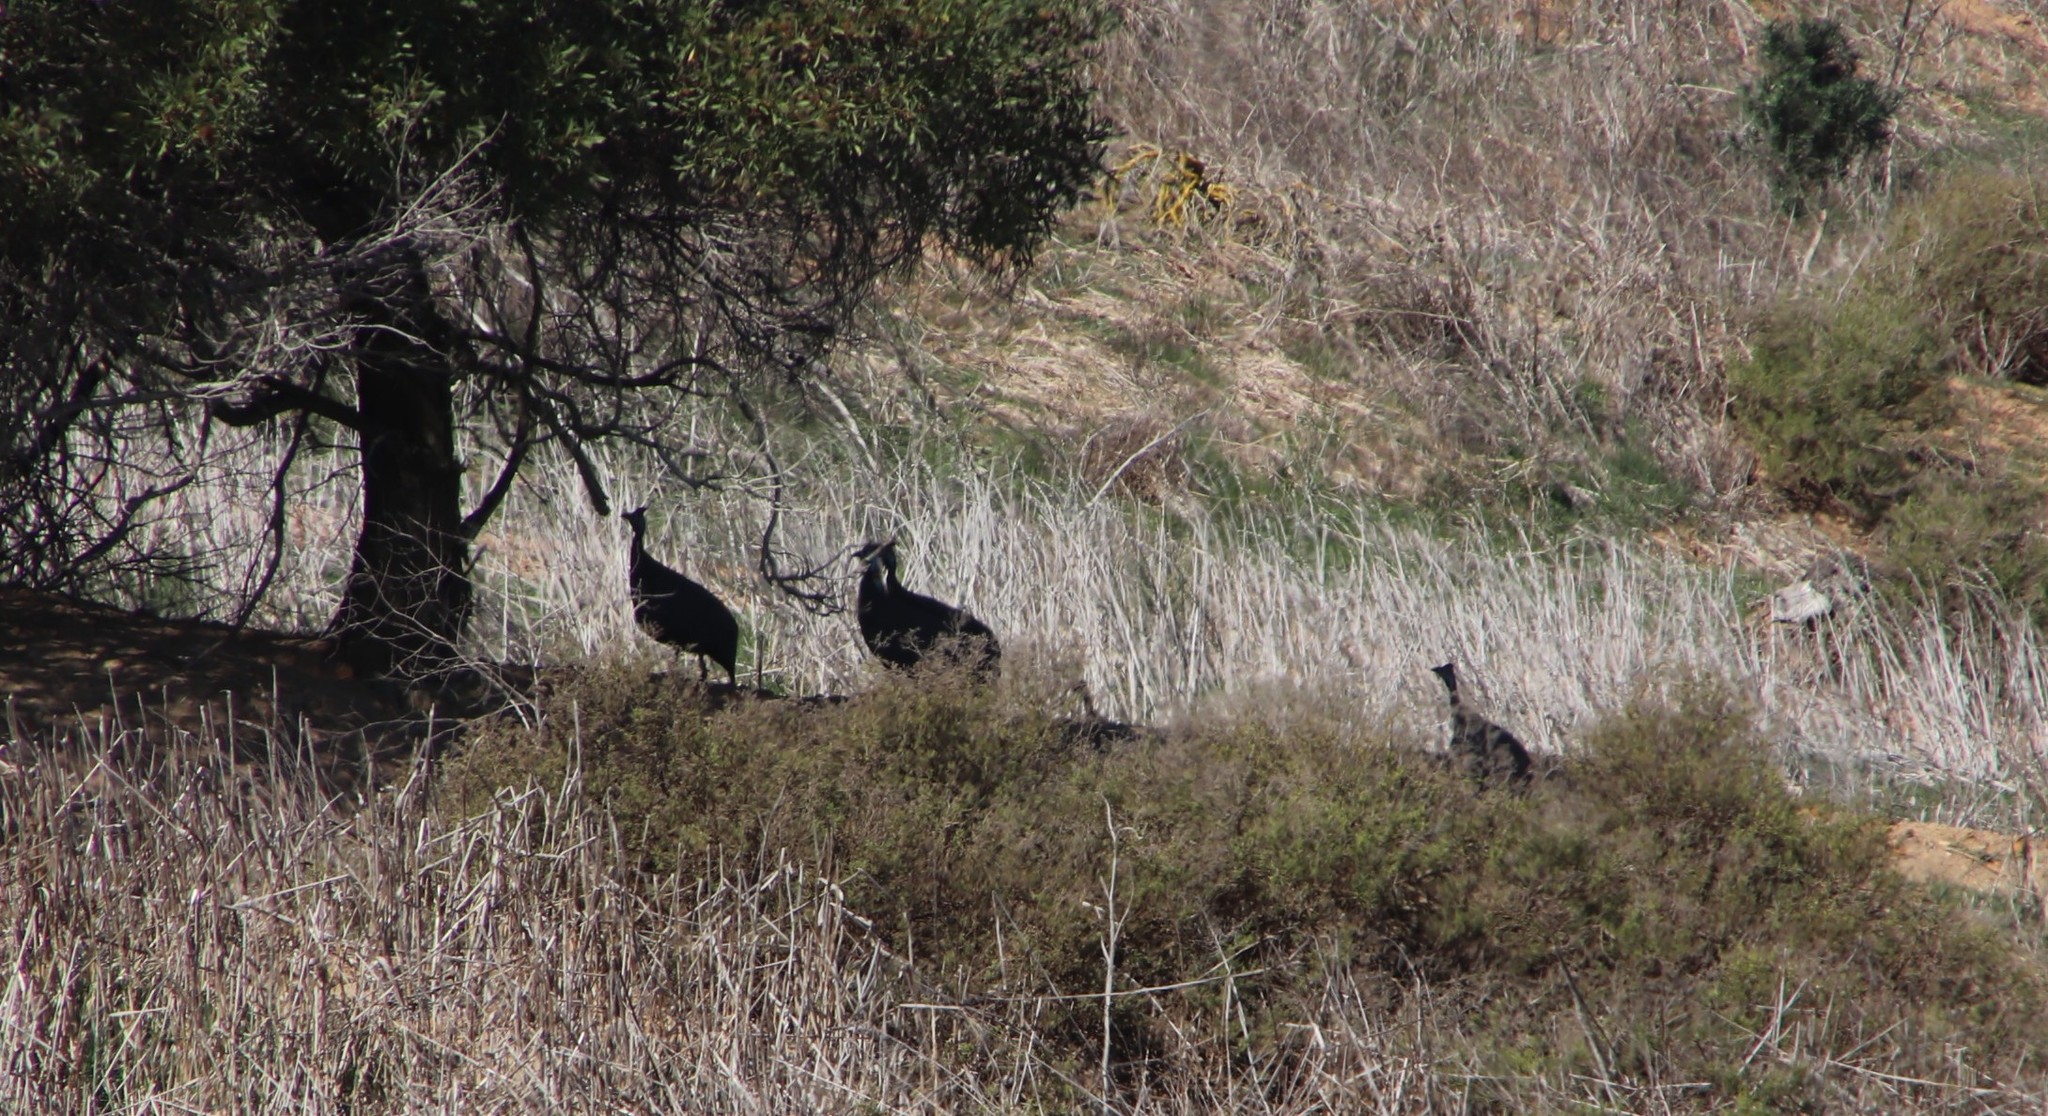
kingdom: Animalia
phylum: Chordata
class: Aves
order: Galliformes
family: Numididae
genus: Numida
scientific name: Numida meleagris
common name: Helmeted guineafowl
